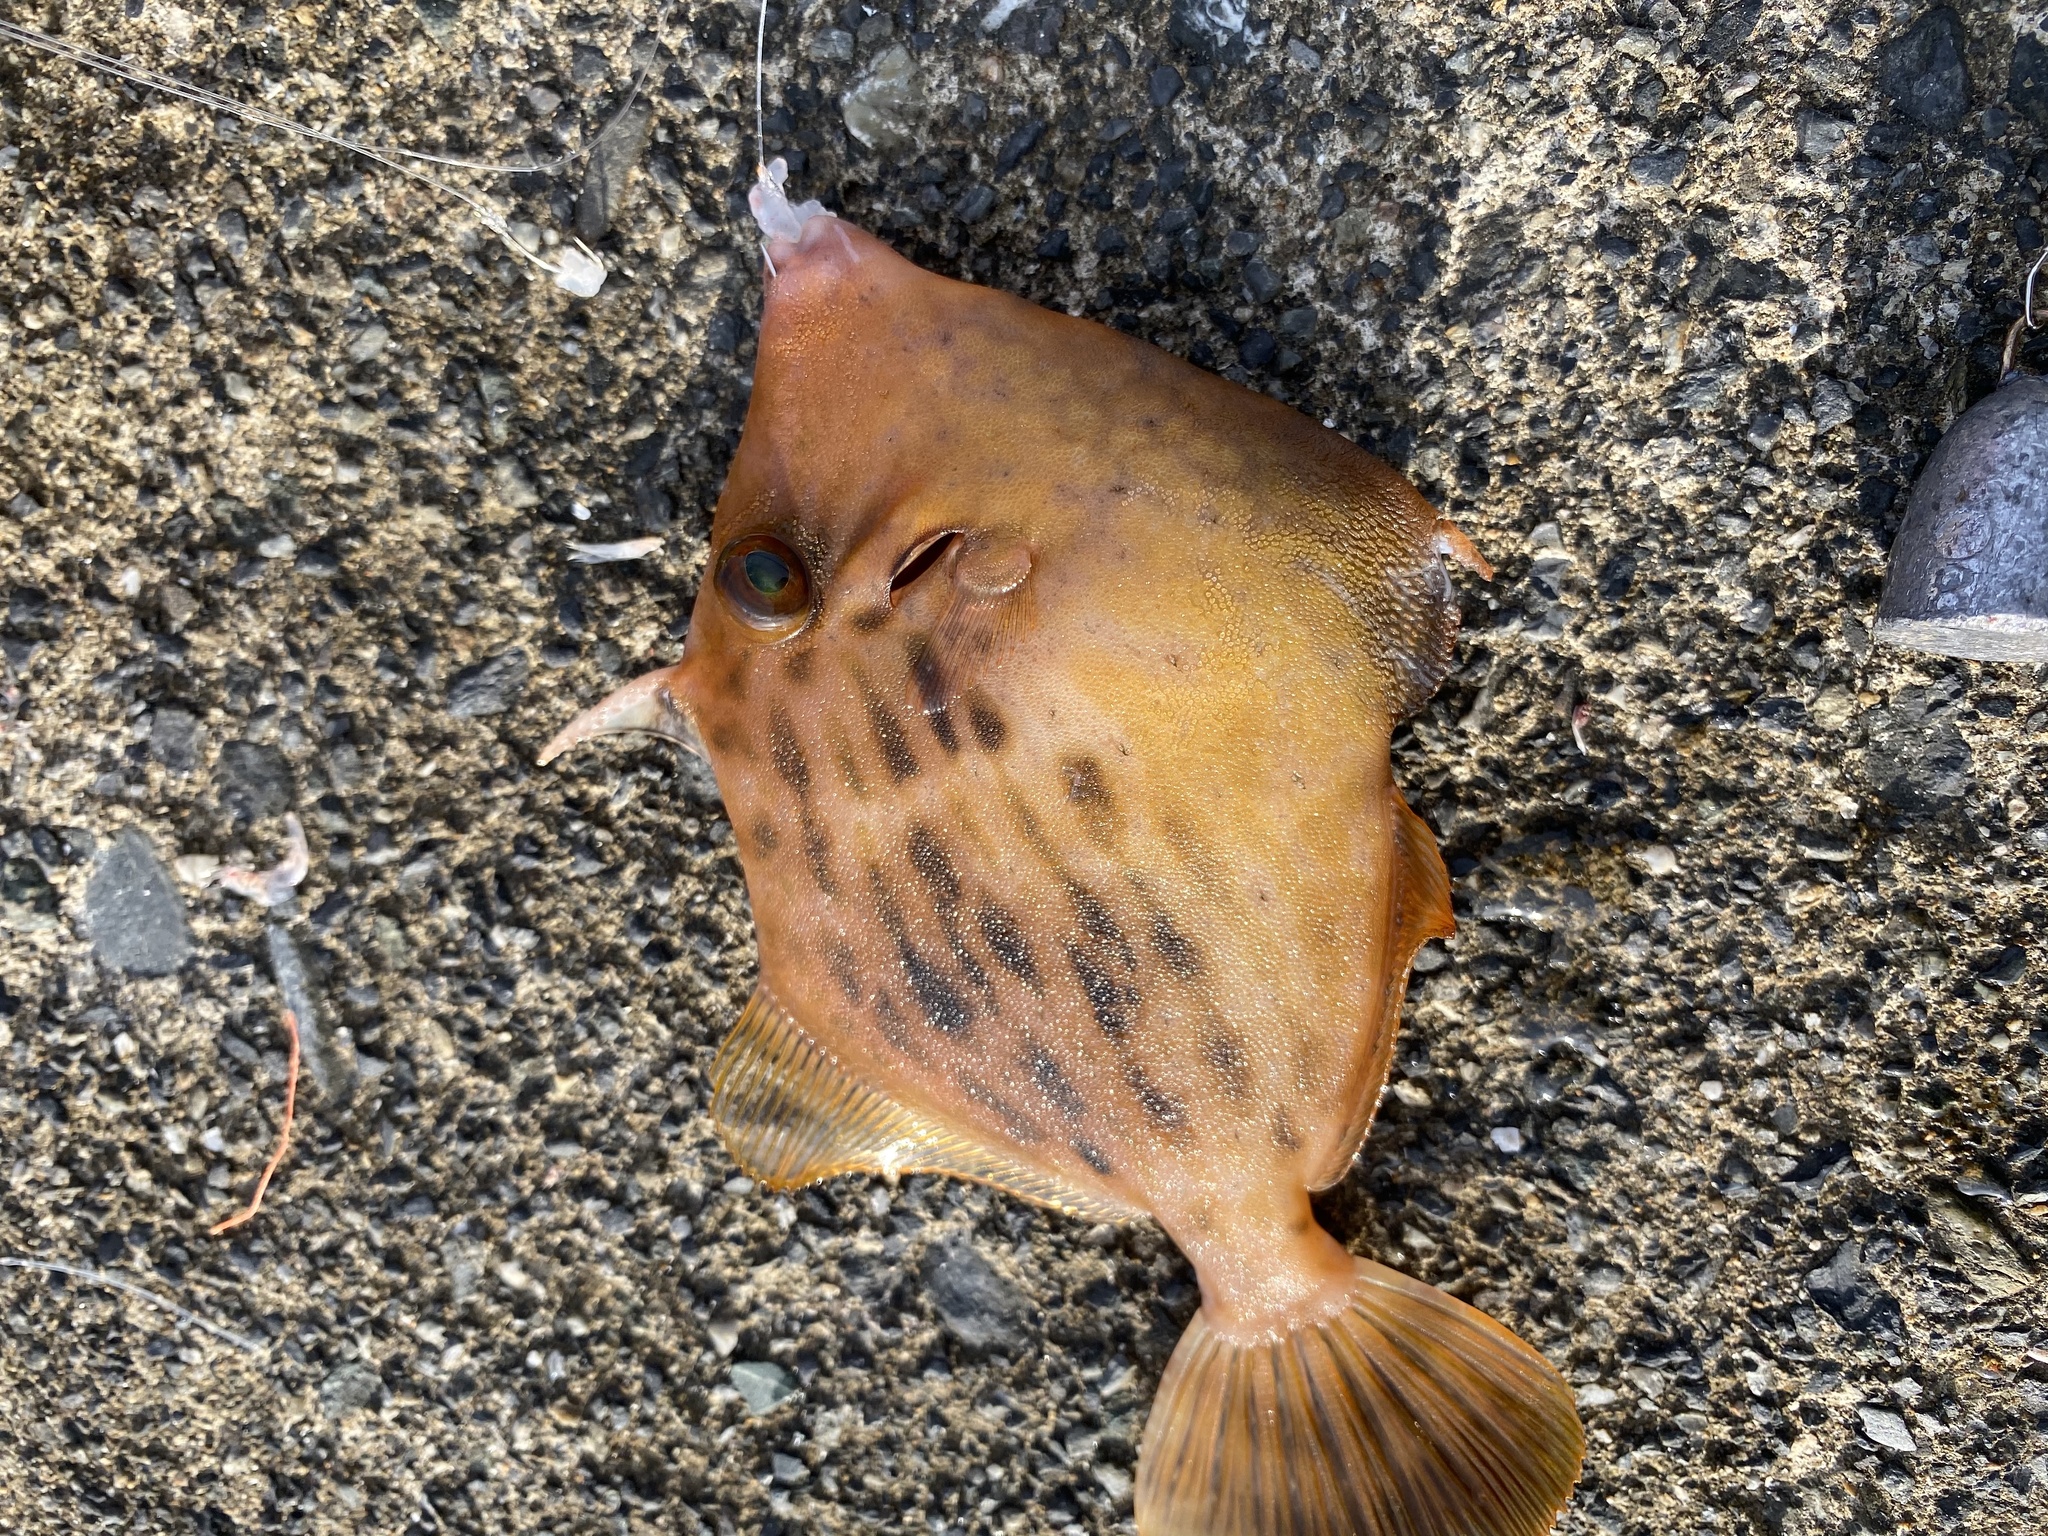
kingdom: Animalia
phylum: Chordata
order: Tetraodontiformes
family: Monacanthidae
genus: Stephanolepis
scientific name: Stephanolepis cirrhifer
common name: Fringed leatherjacket
